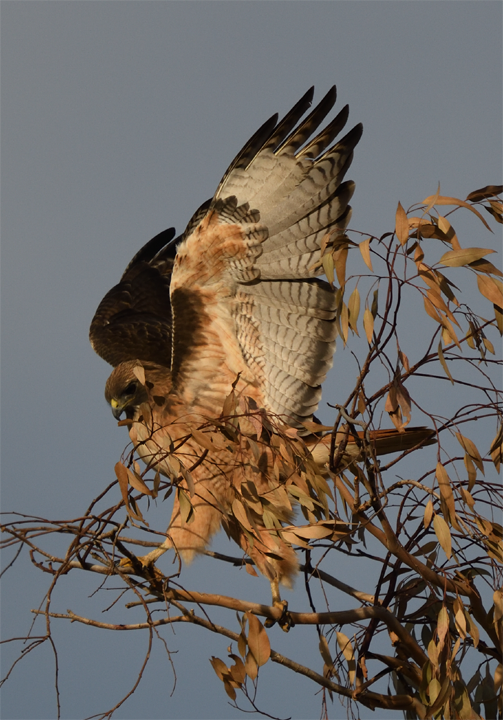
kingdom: Animalia
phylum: Chordata
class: Aves
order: Accipitriformes
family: Accipitridae
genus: Buteo
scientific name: Buteo jamaicensis
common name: Red-tailed hawk
